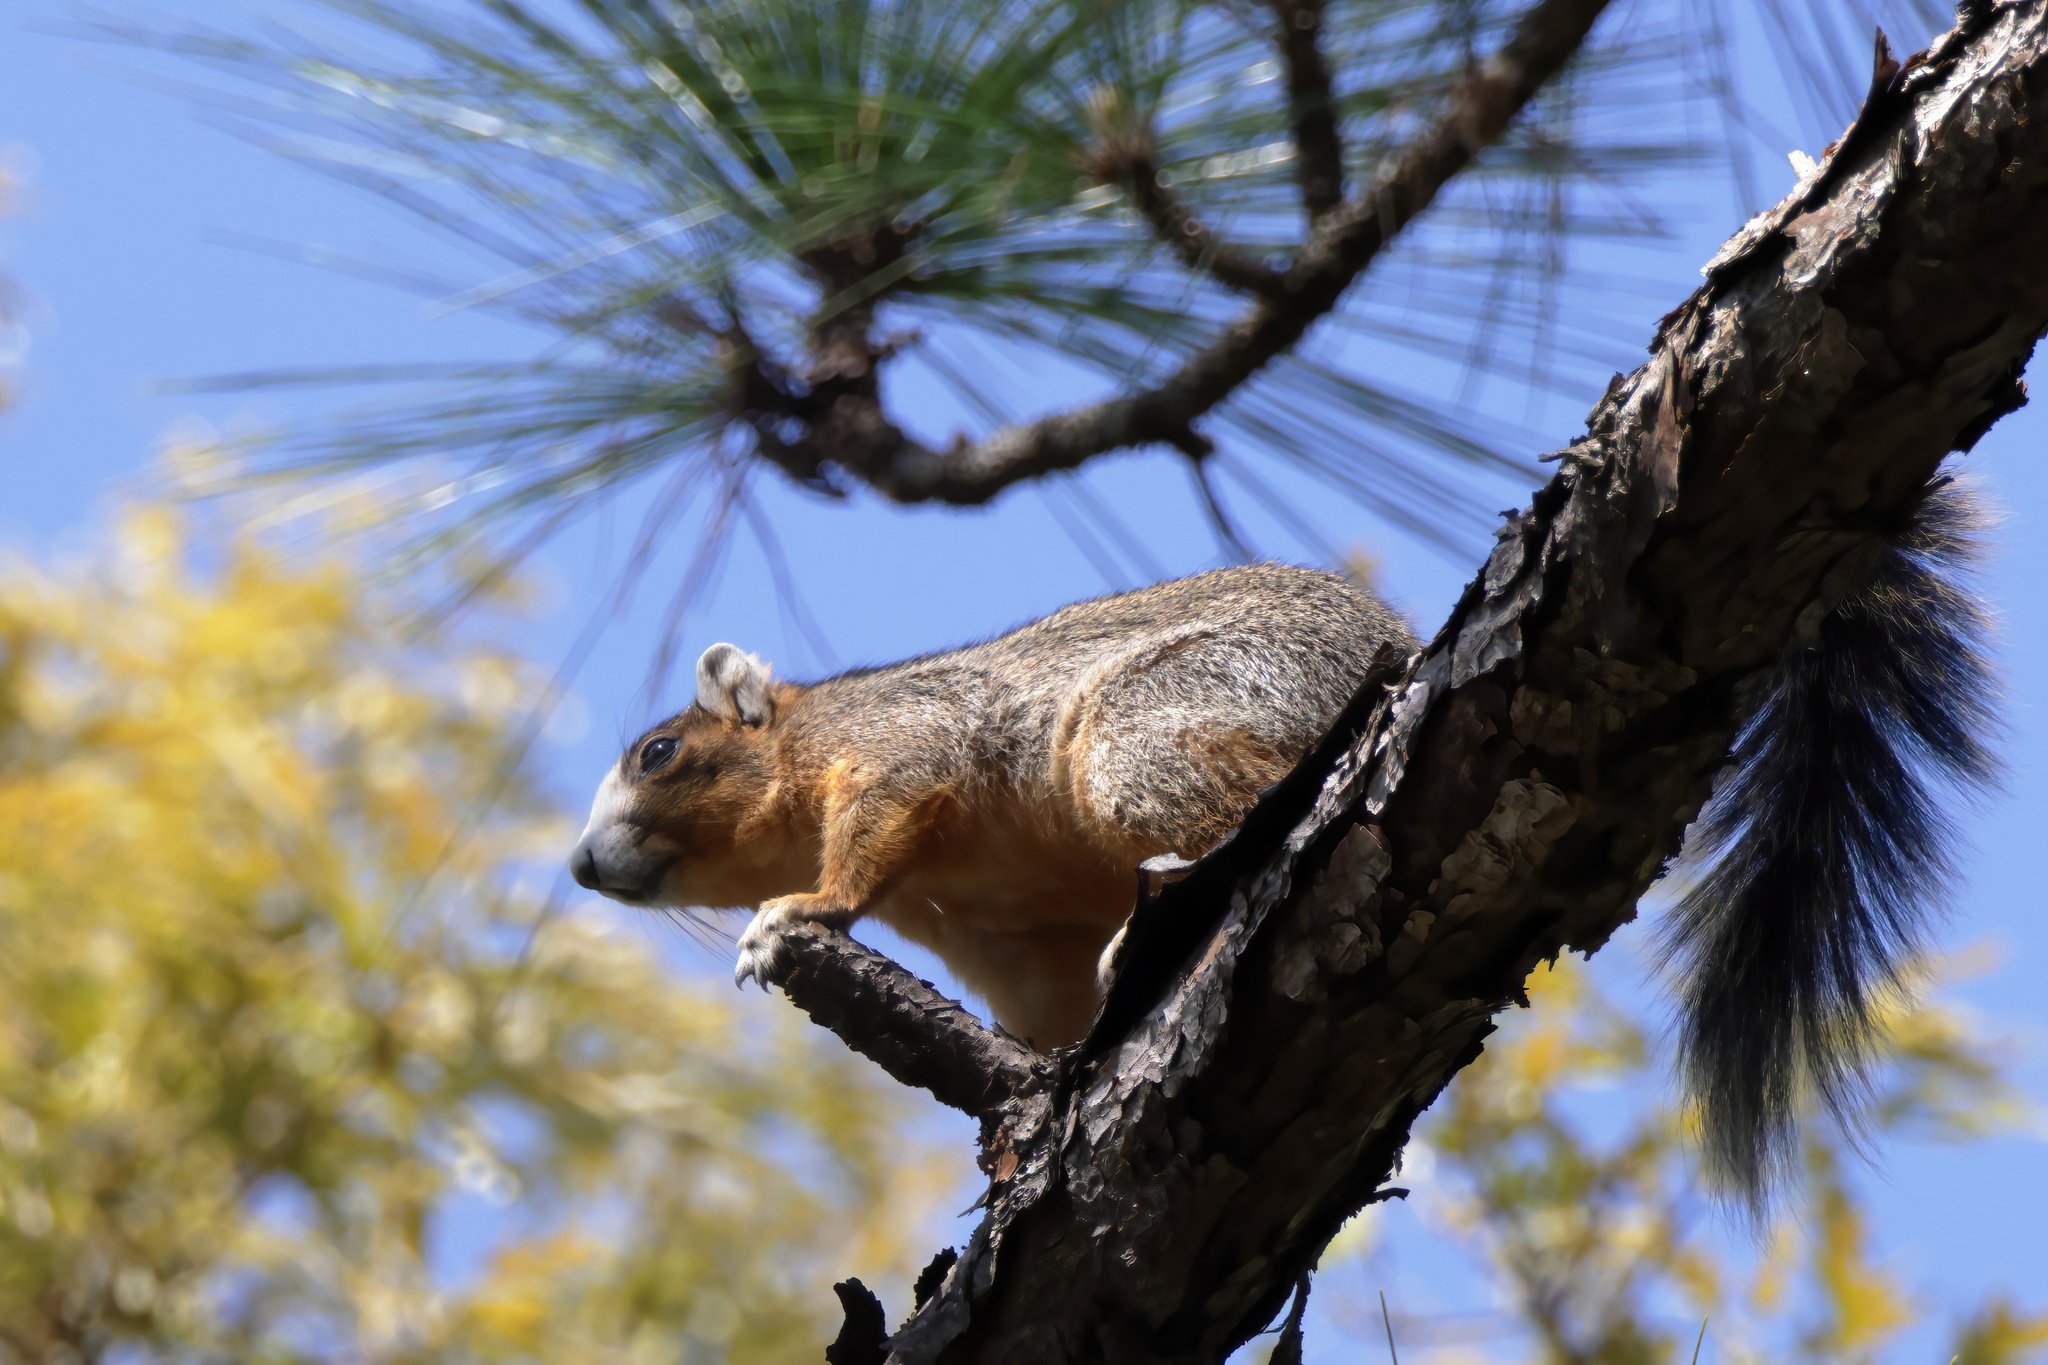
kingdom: Animalia
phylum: Chordata
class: Mammalia
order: Rodentia
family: Sciuridae
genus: Sciurus
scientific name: Sciurus niger
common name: Fox squirrel
